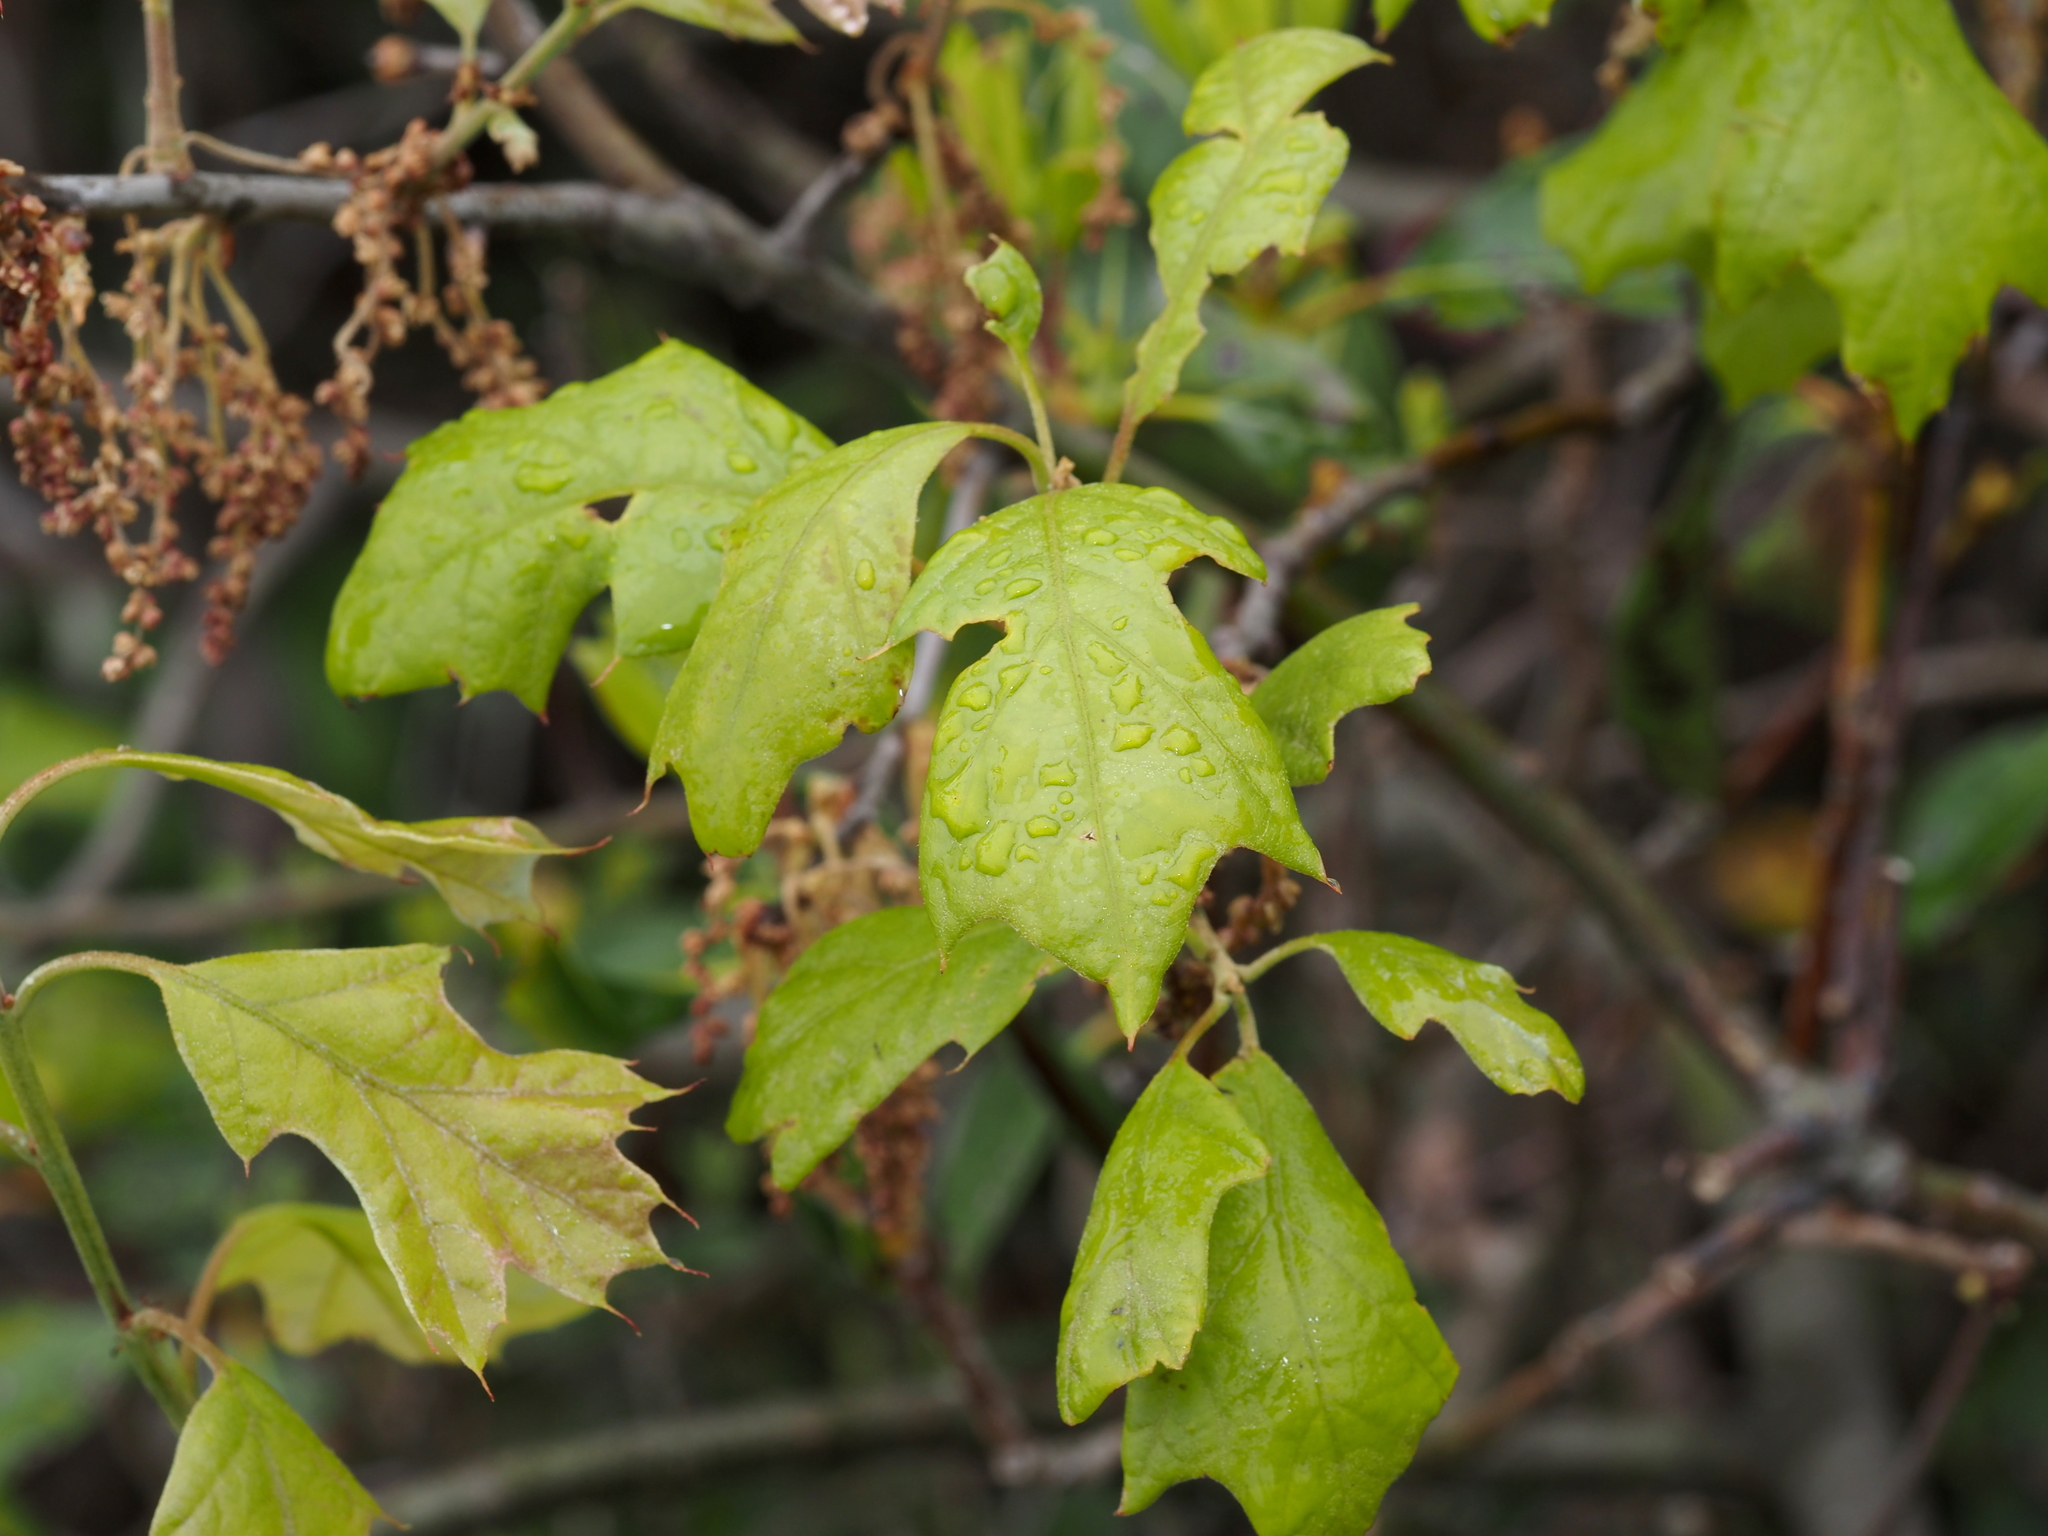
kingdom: Plantae
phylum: Tracheophyta
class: Magnoliopsida
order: Fagales
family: Fagaceae
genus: Quercus
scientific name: Quercus ilicifolia
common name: Bear oak
